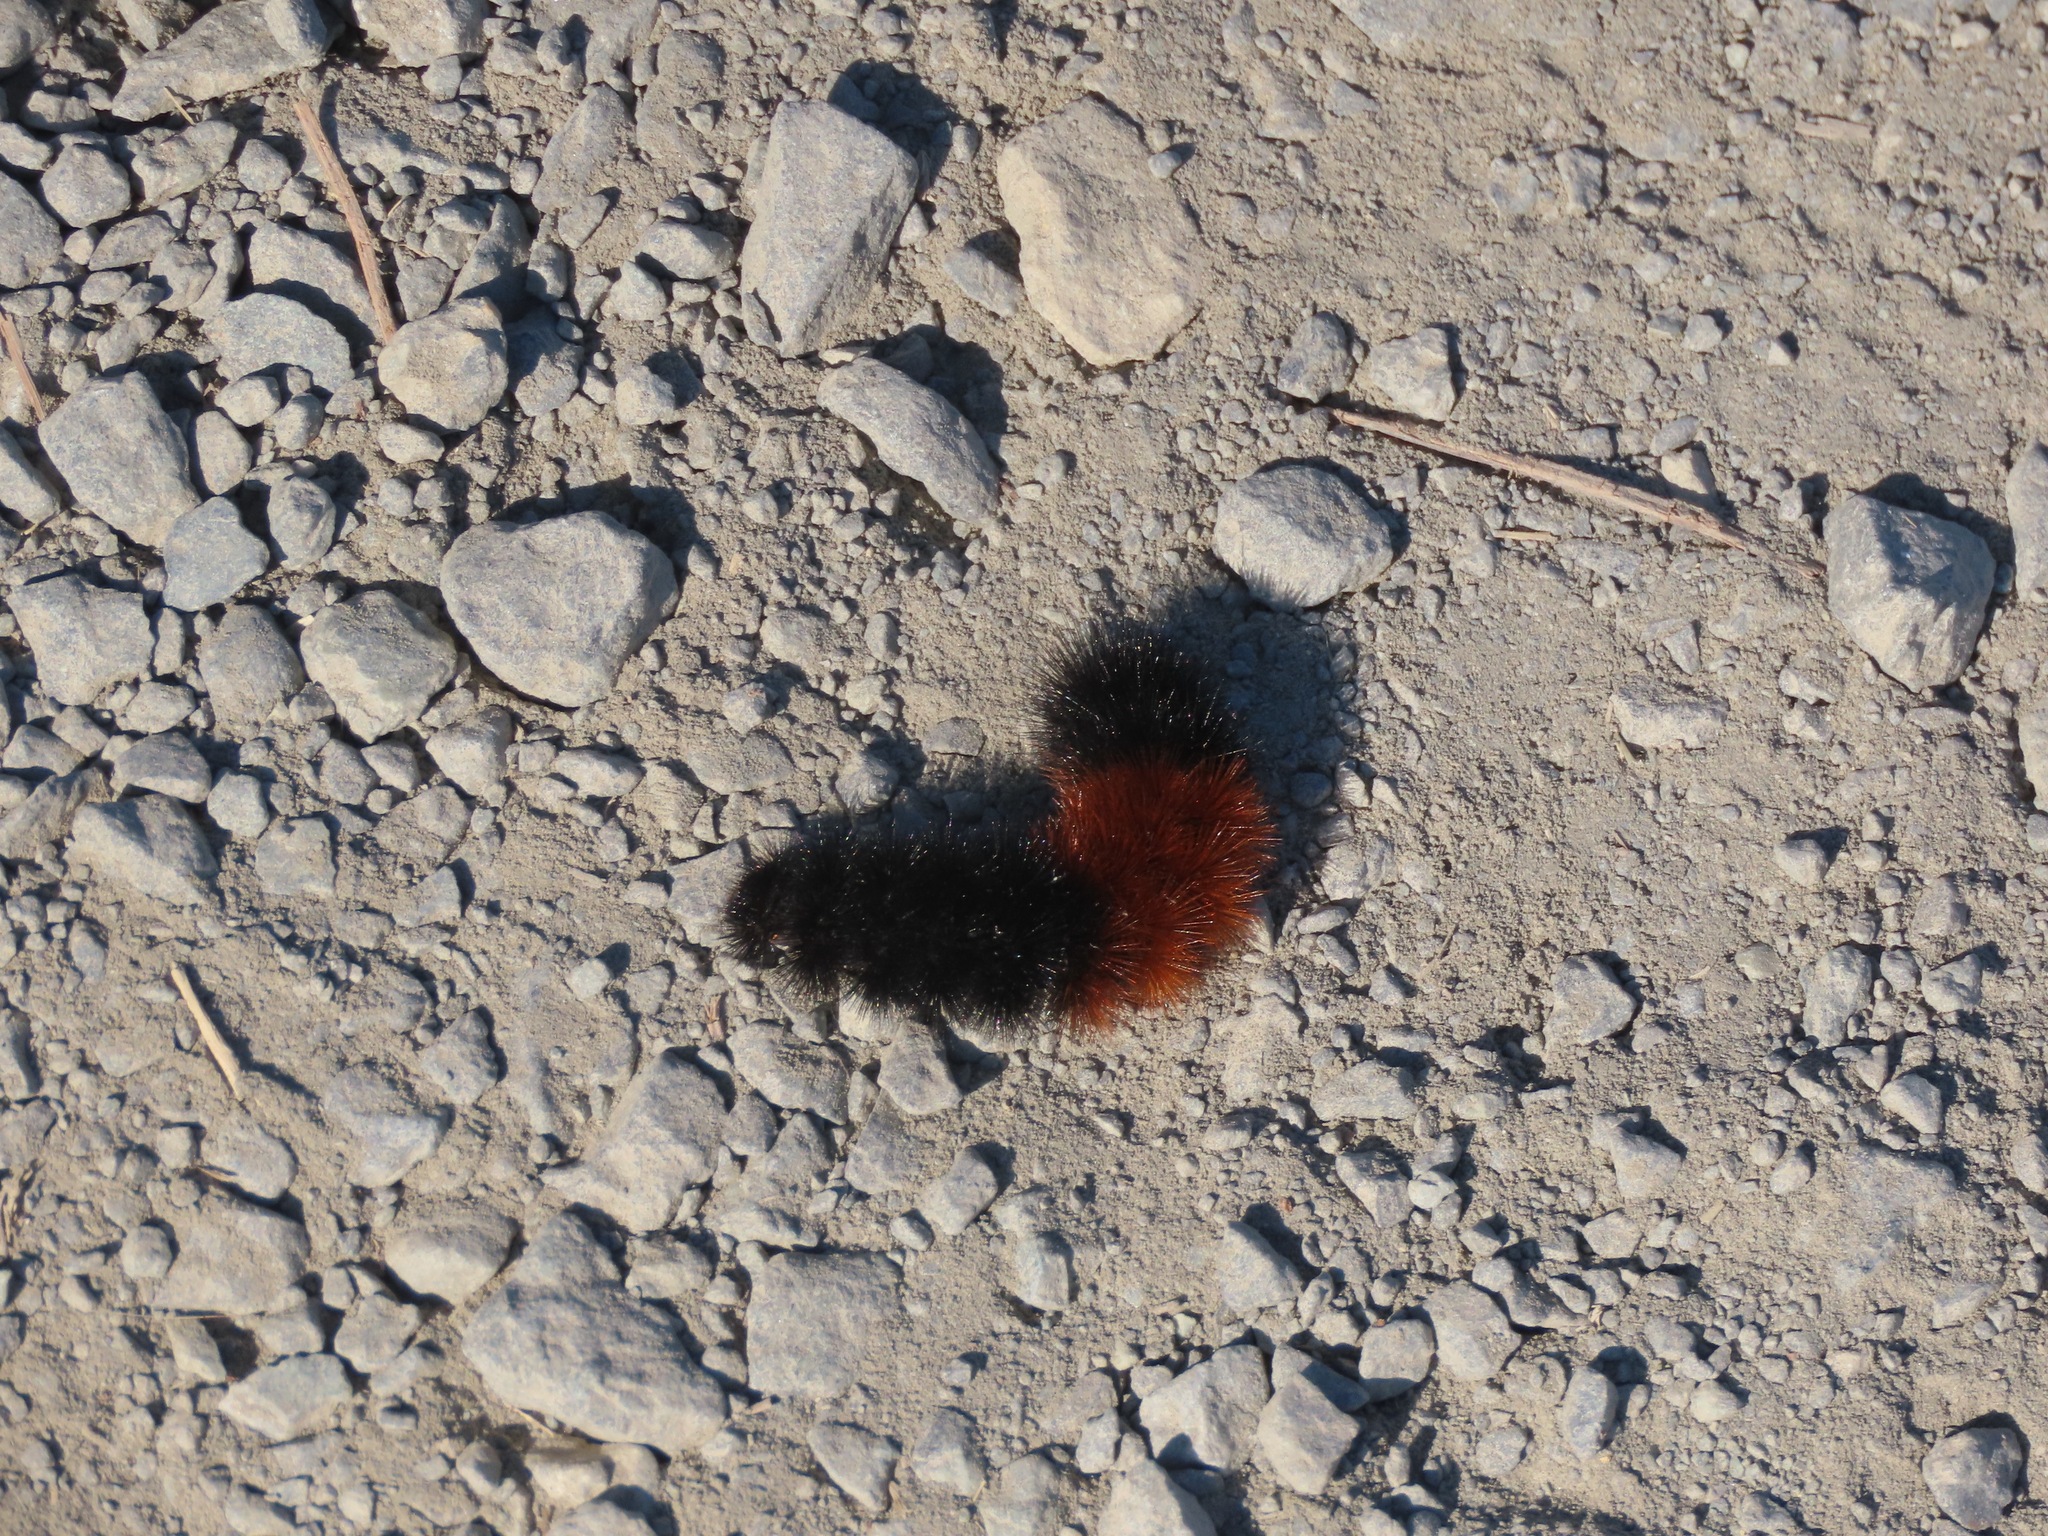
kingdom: Animalia
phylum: Arthropoda
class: Insecta
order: Lepidoptera
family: Erebidae
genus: Pyrrharctia
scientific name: Pyrrharctia isabella
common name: Isabella tiger moth
